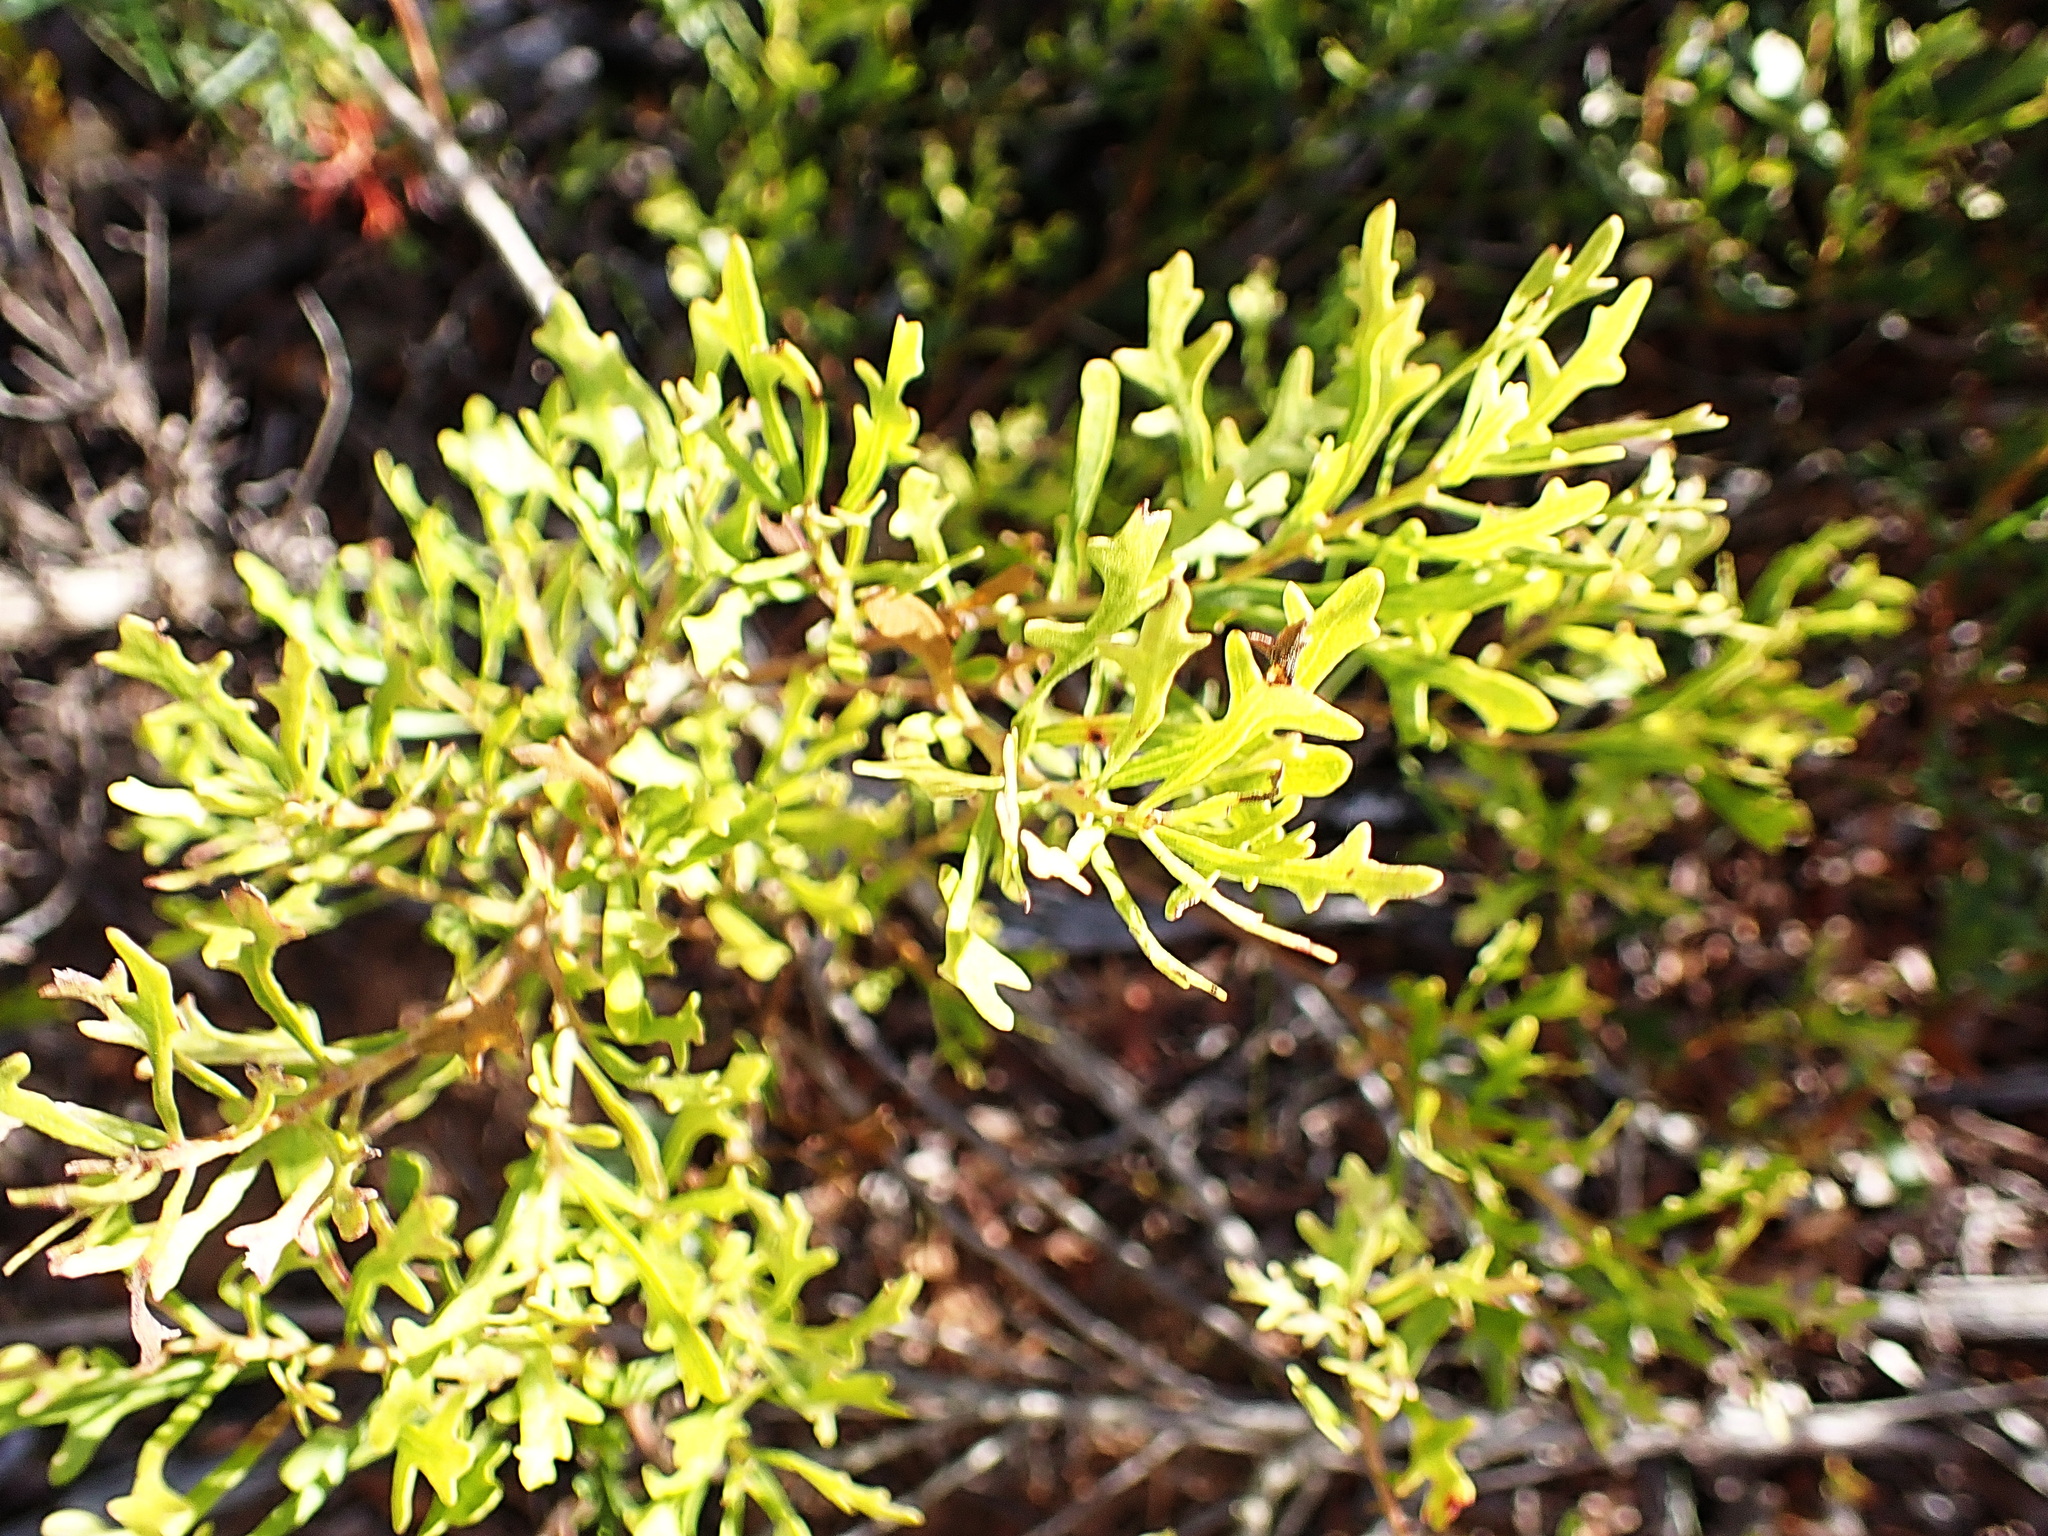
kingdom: Plantae
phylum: Tracheophyta
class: Magnoliopsida
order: Fagales
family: Myricaceae
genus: Morella
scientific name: Morella quercifolia
